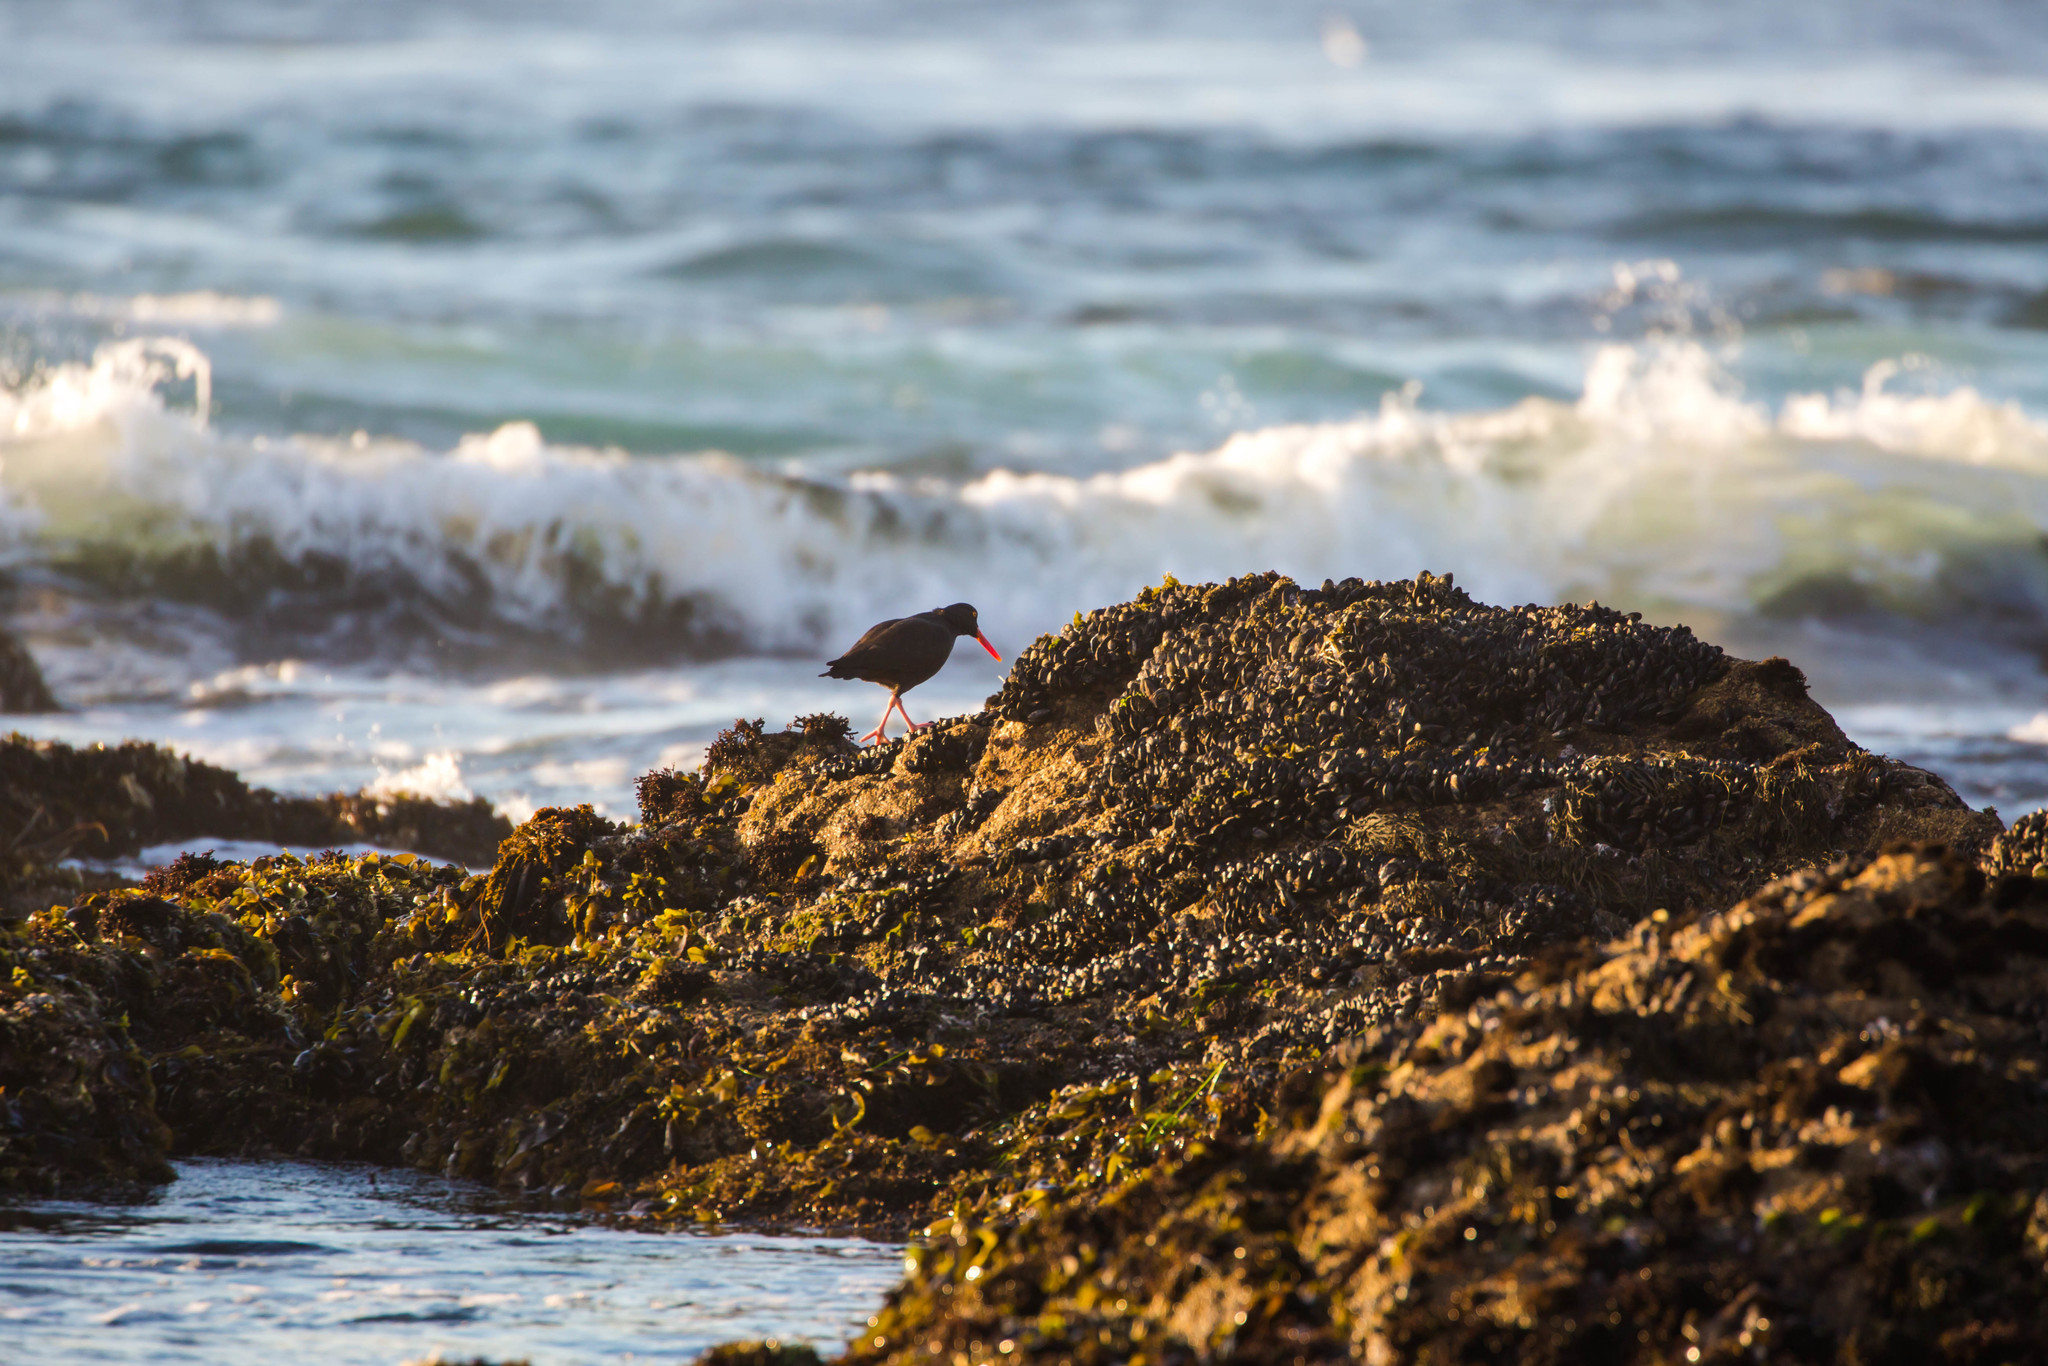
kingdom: Animalia
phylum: Chordata
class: Aves
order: Charadriiformes
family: Haematopodidae
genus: Haematopus
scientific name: Haematopus bachmani
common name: Black oystercatcher
